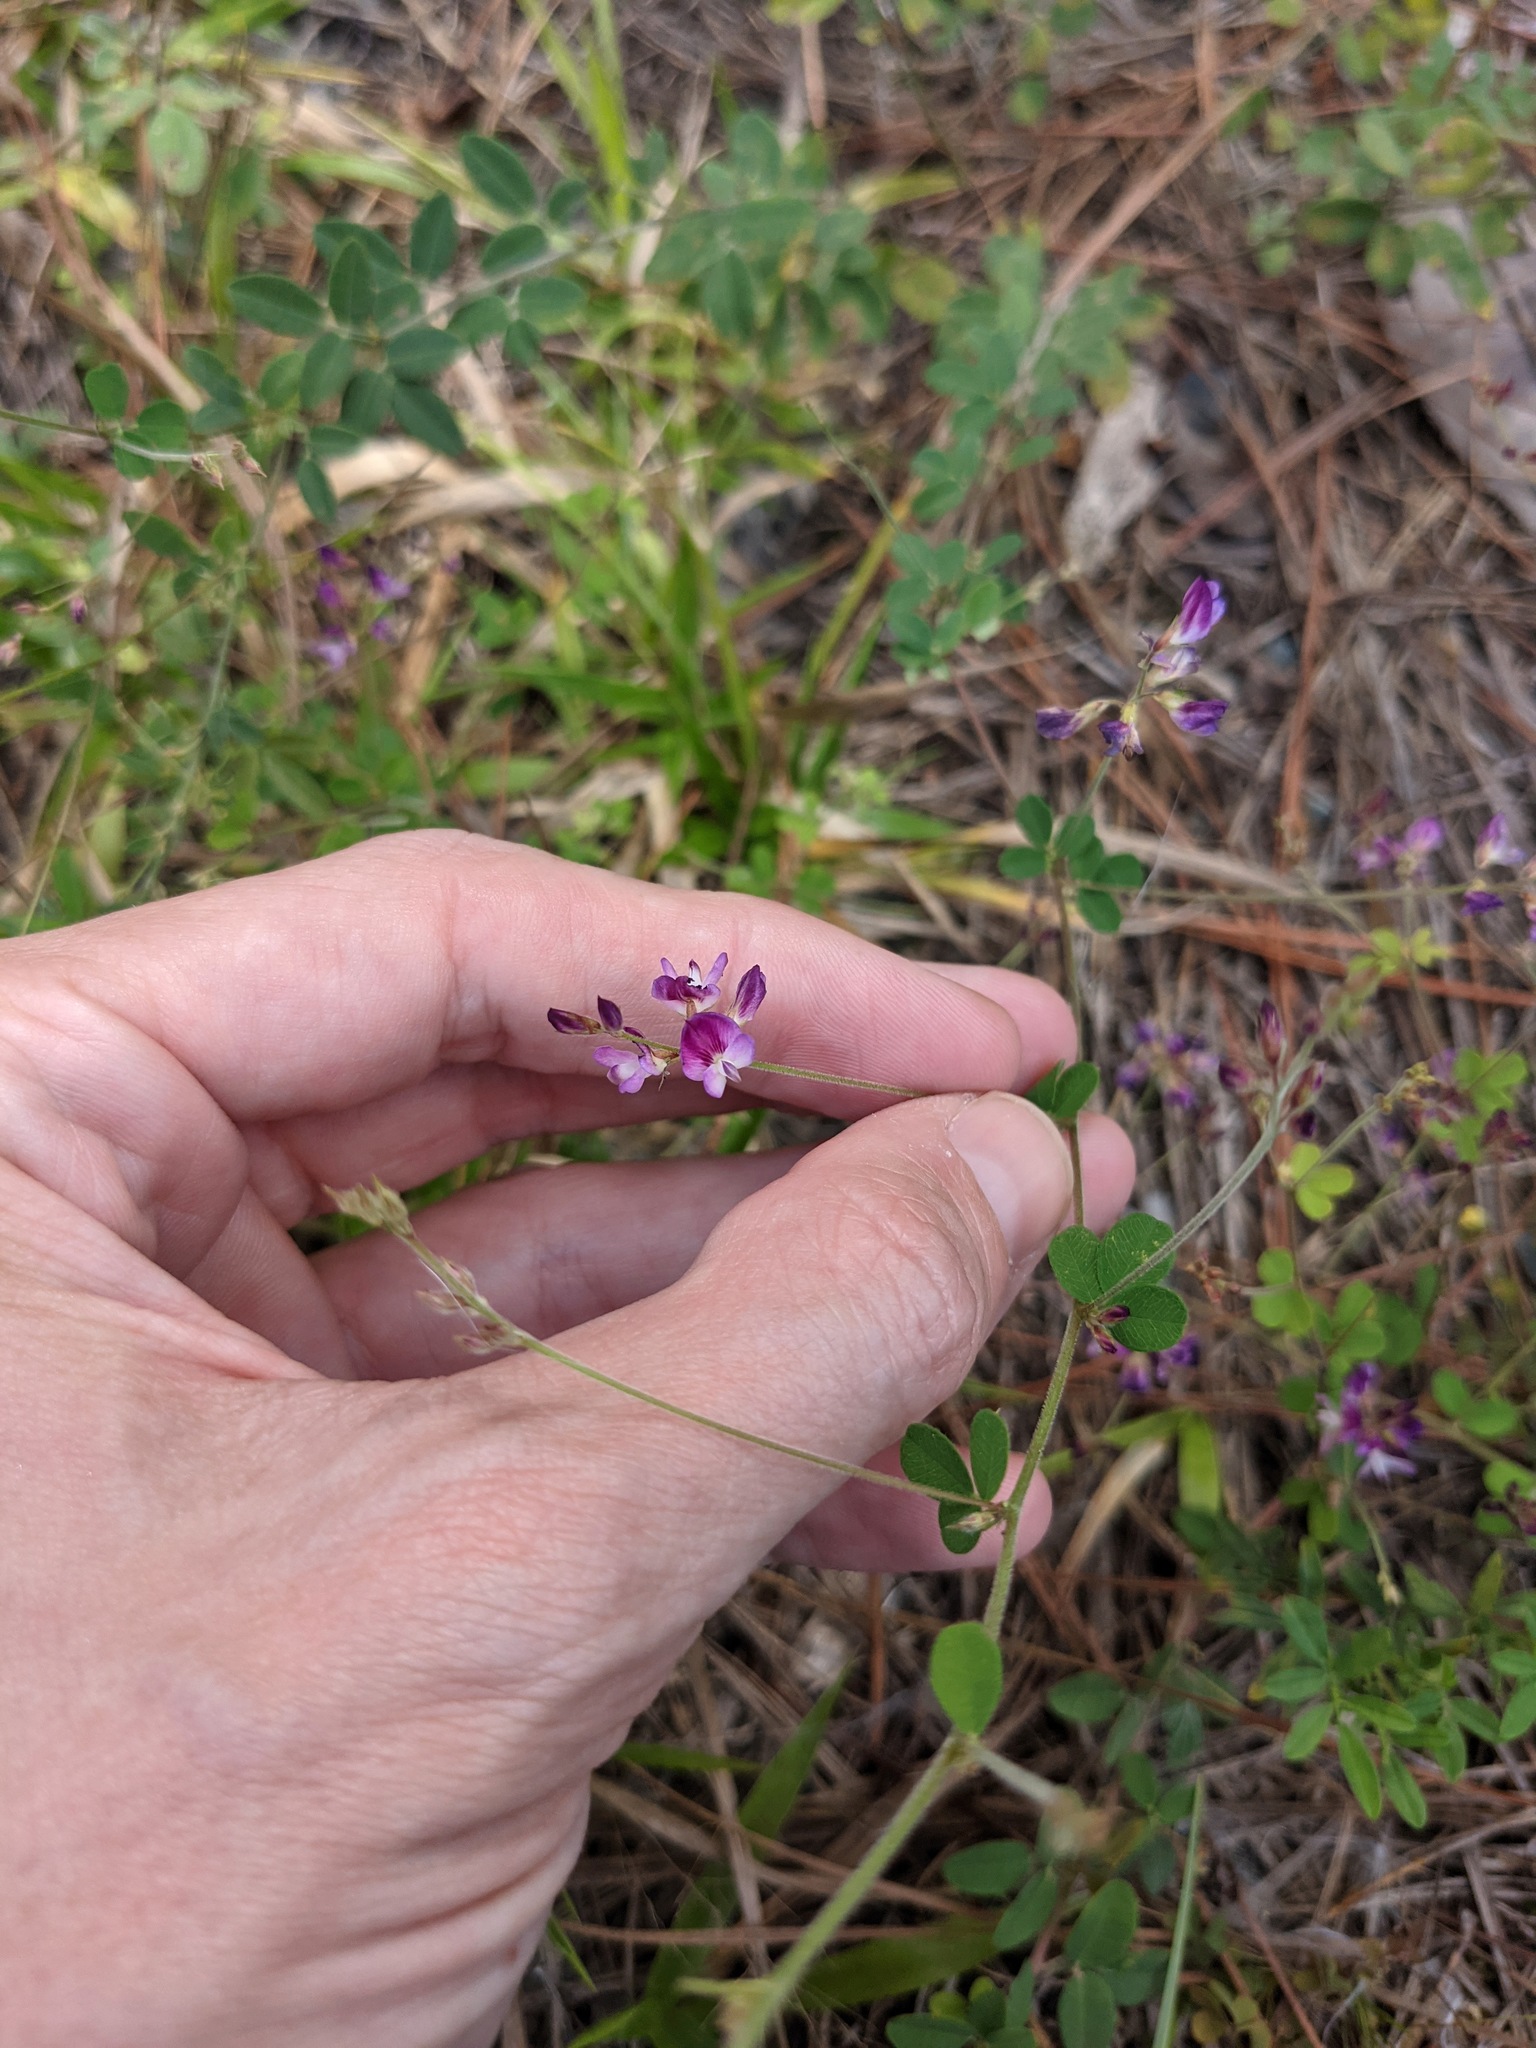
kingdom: Plantae
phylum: Tracheophyta
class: Magnoliopsida
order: Fabales
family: Fabaceae
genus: Lespedeza
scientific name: Lespedeza procumbens
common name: Downy trailing bush-clover
